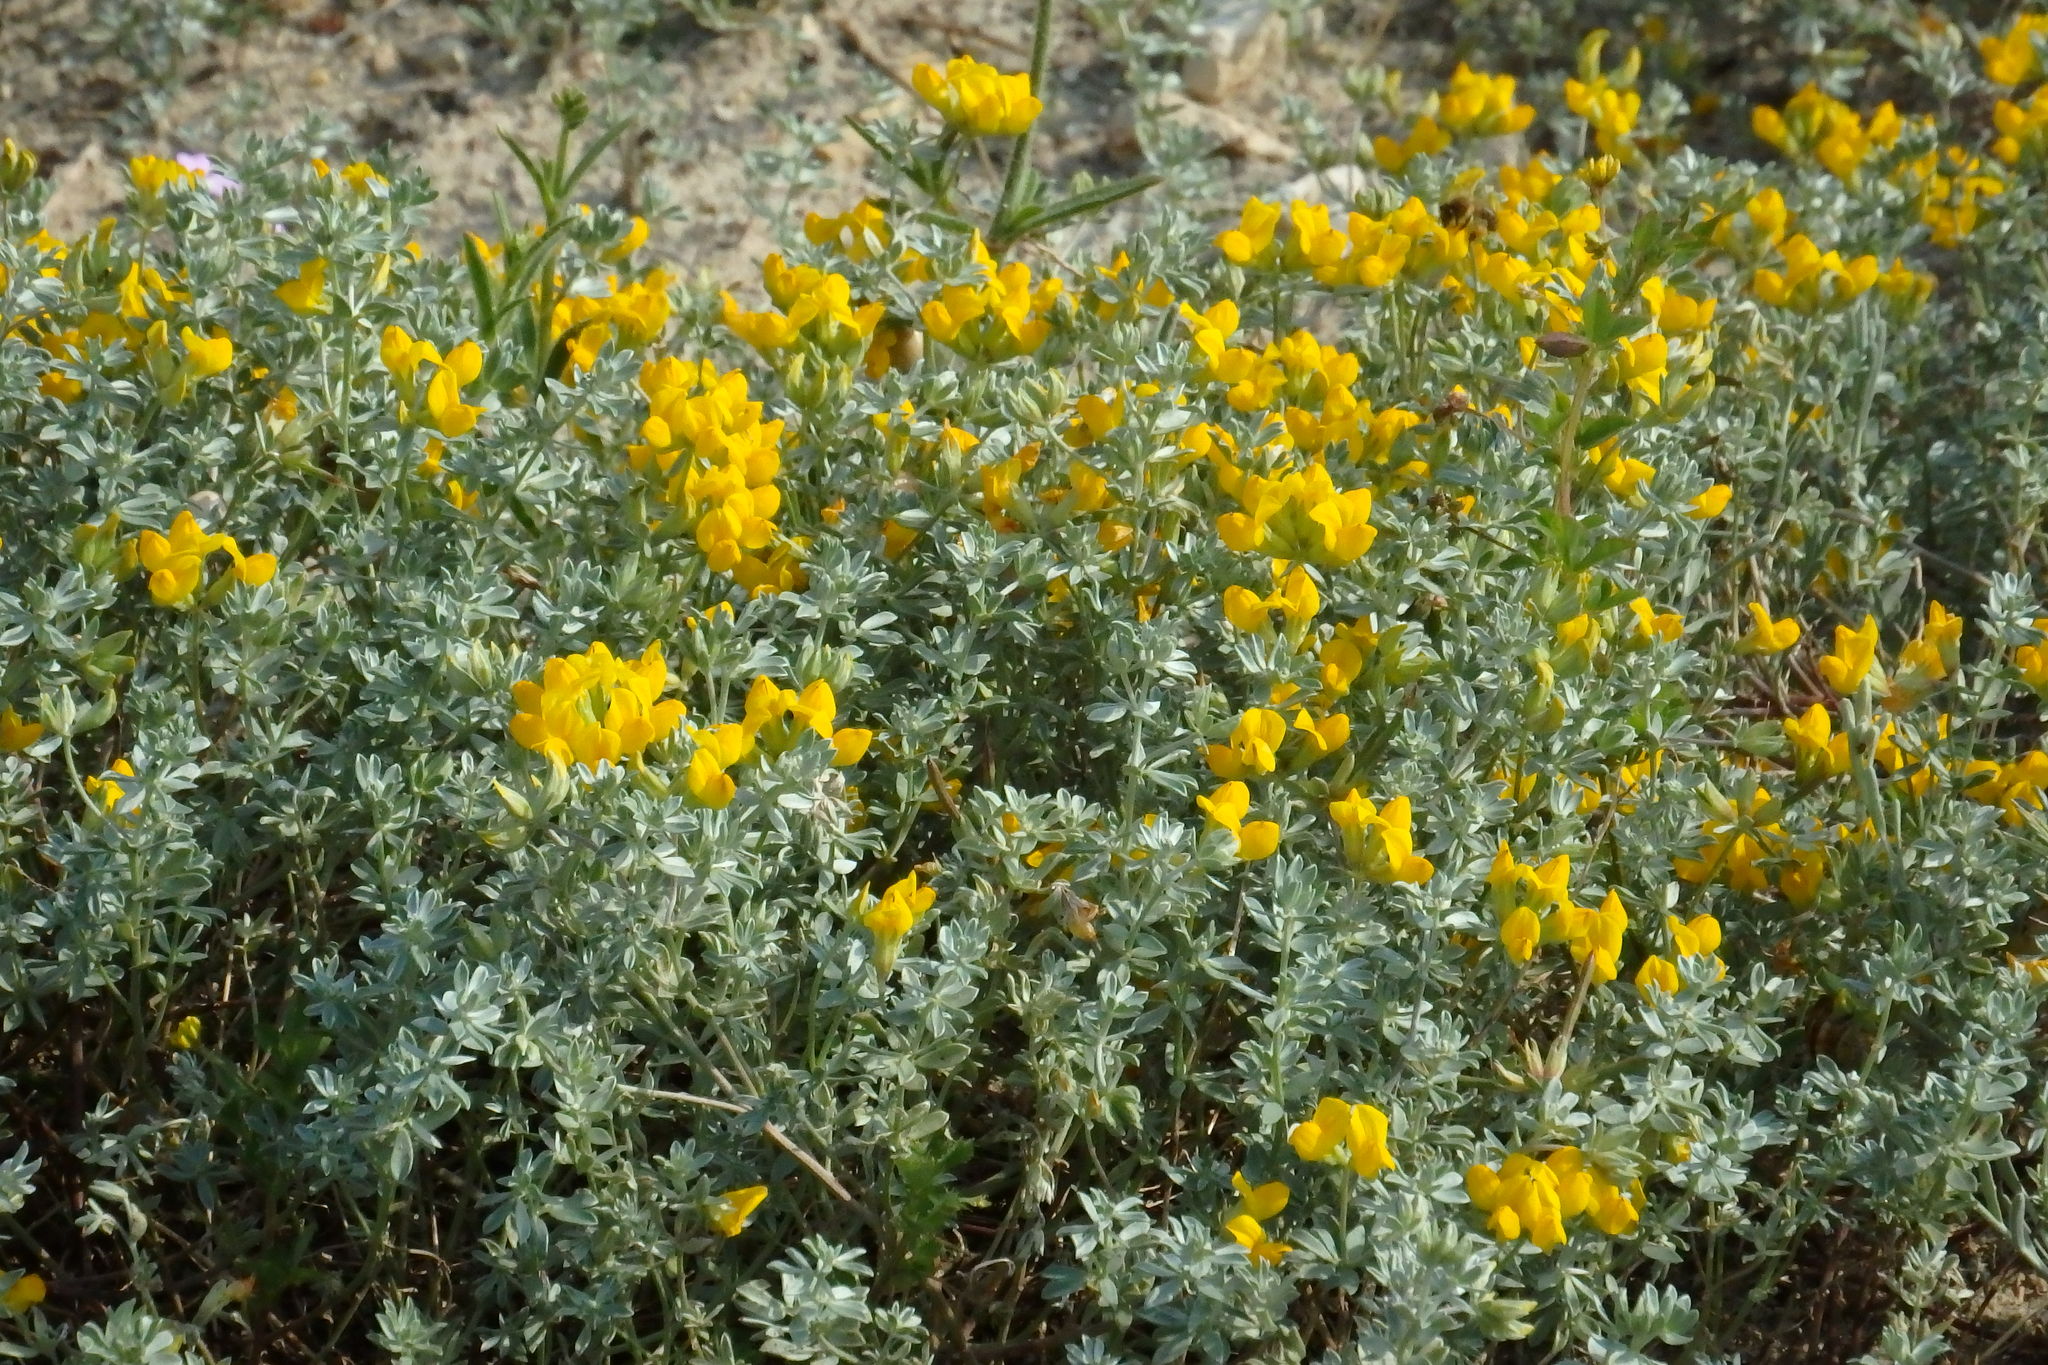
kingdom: Plantae
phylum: Tracheophyta
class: Magnoliopsida
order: Fabales
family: Fabaceae
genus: Lotus
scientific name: Lotus creticus
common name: Cretan bird's-foot trefoil
